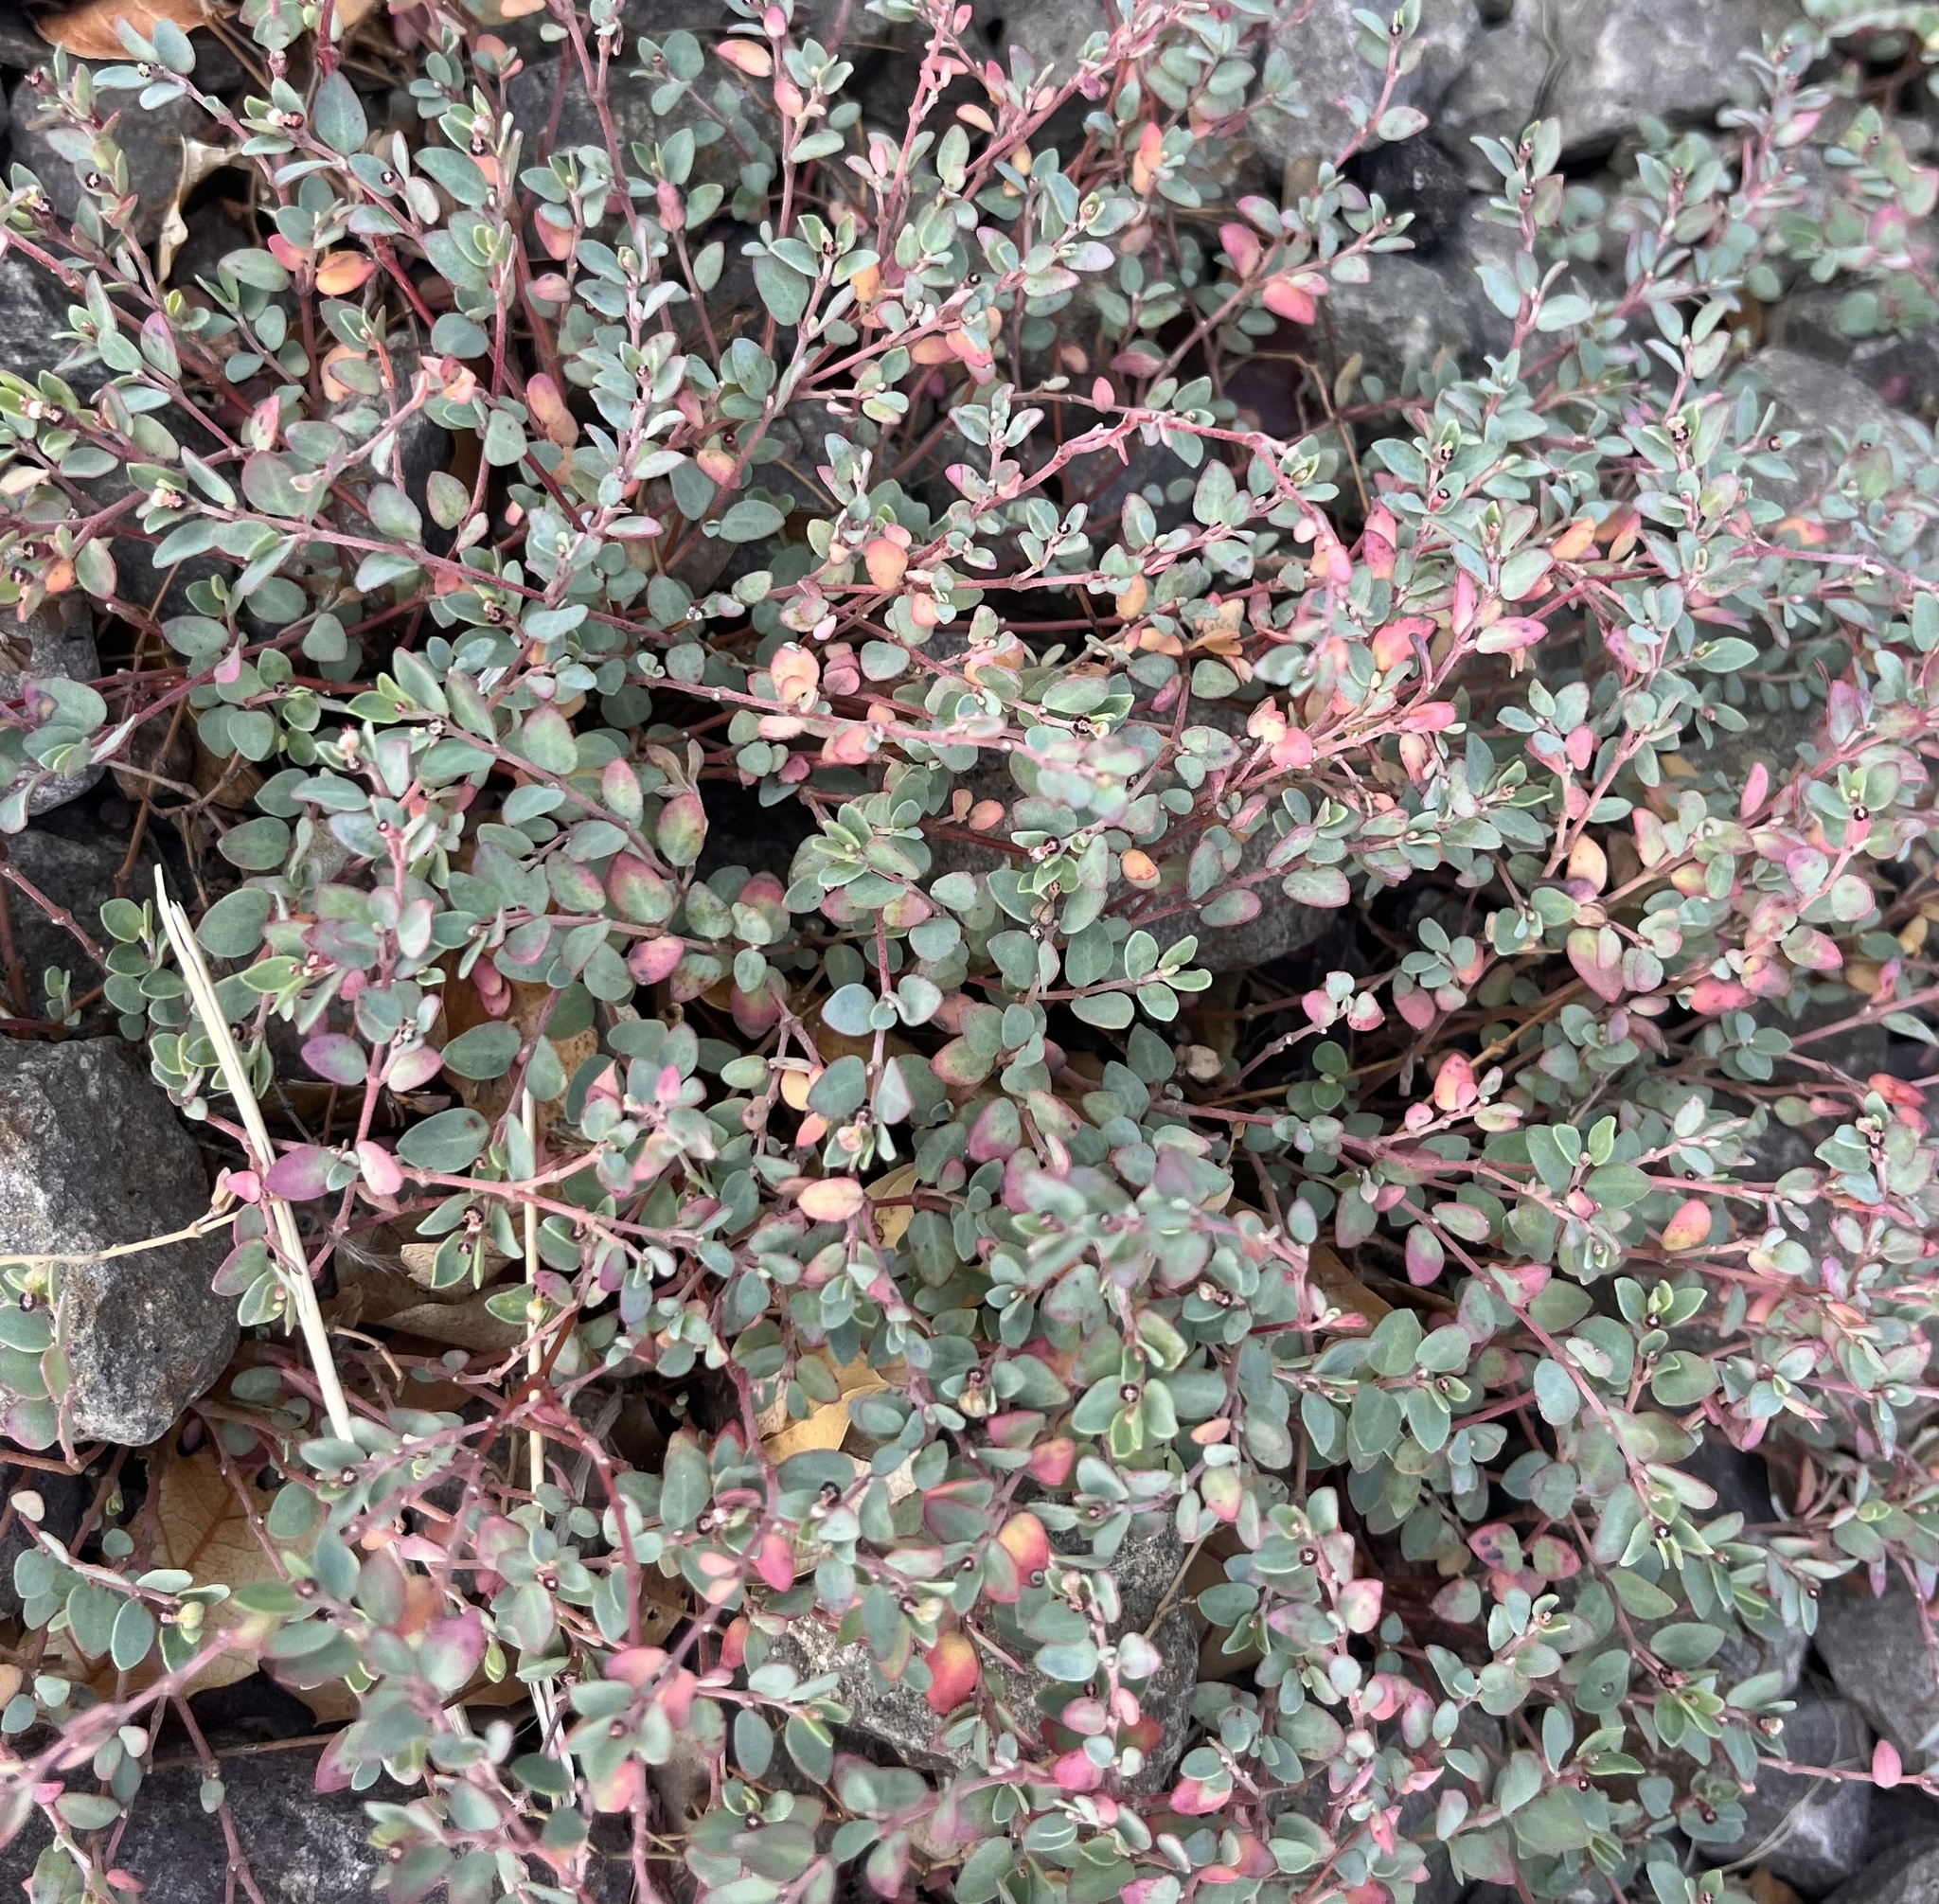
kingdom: Plantae
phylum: Tracheophyta
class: Magnoliopsida
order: Malpighiales
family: Euphorbiaceae
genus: Euphorbia
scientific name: Euphorbia cinerascens
